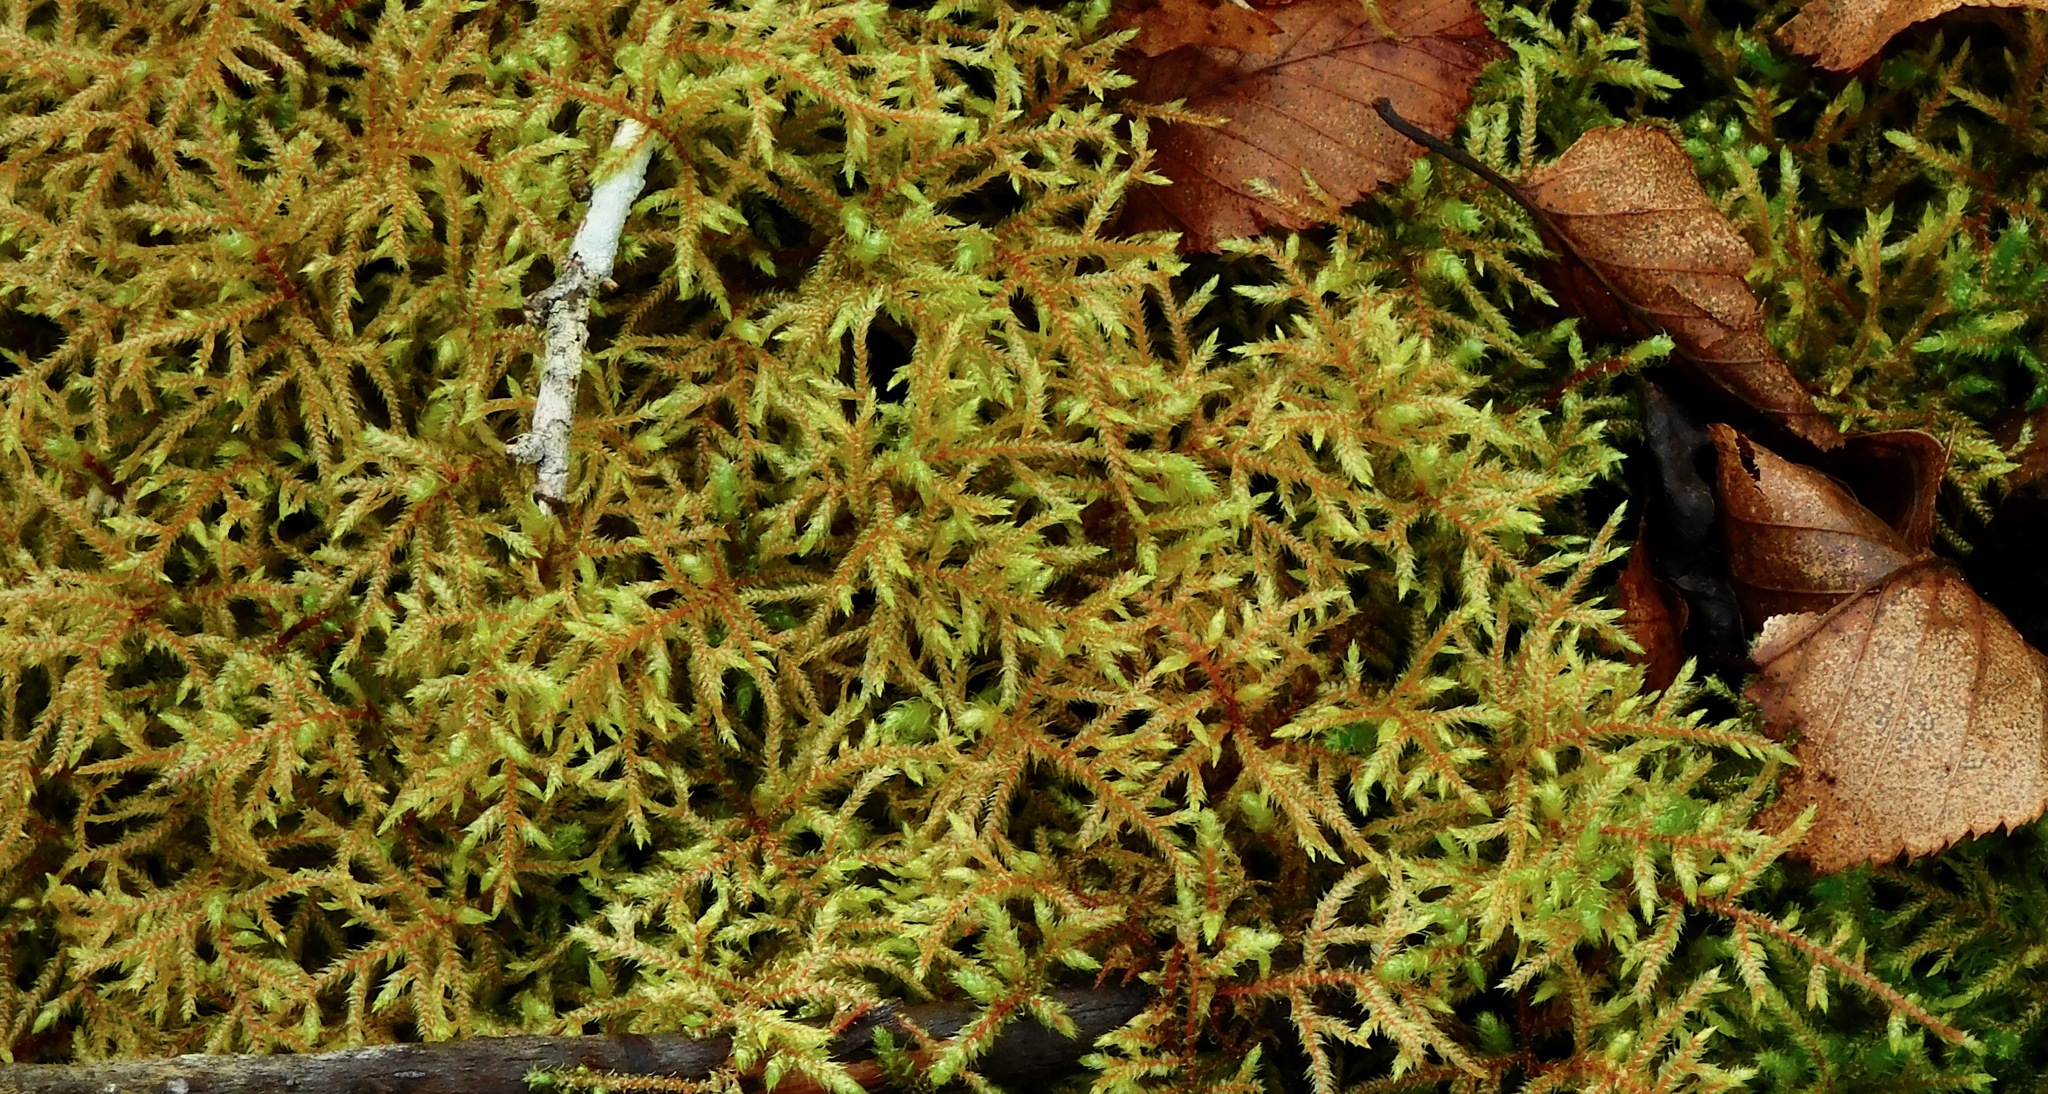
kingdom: Plantae
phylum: Bryophyta
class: Bryopsida
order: Hypnales
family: Hylocomiaceae
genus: Loeskeobryum
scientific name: Loeskeobryum brevirostre
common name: Short-beaked wood-moss
